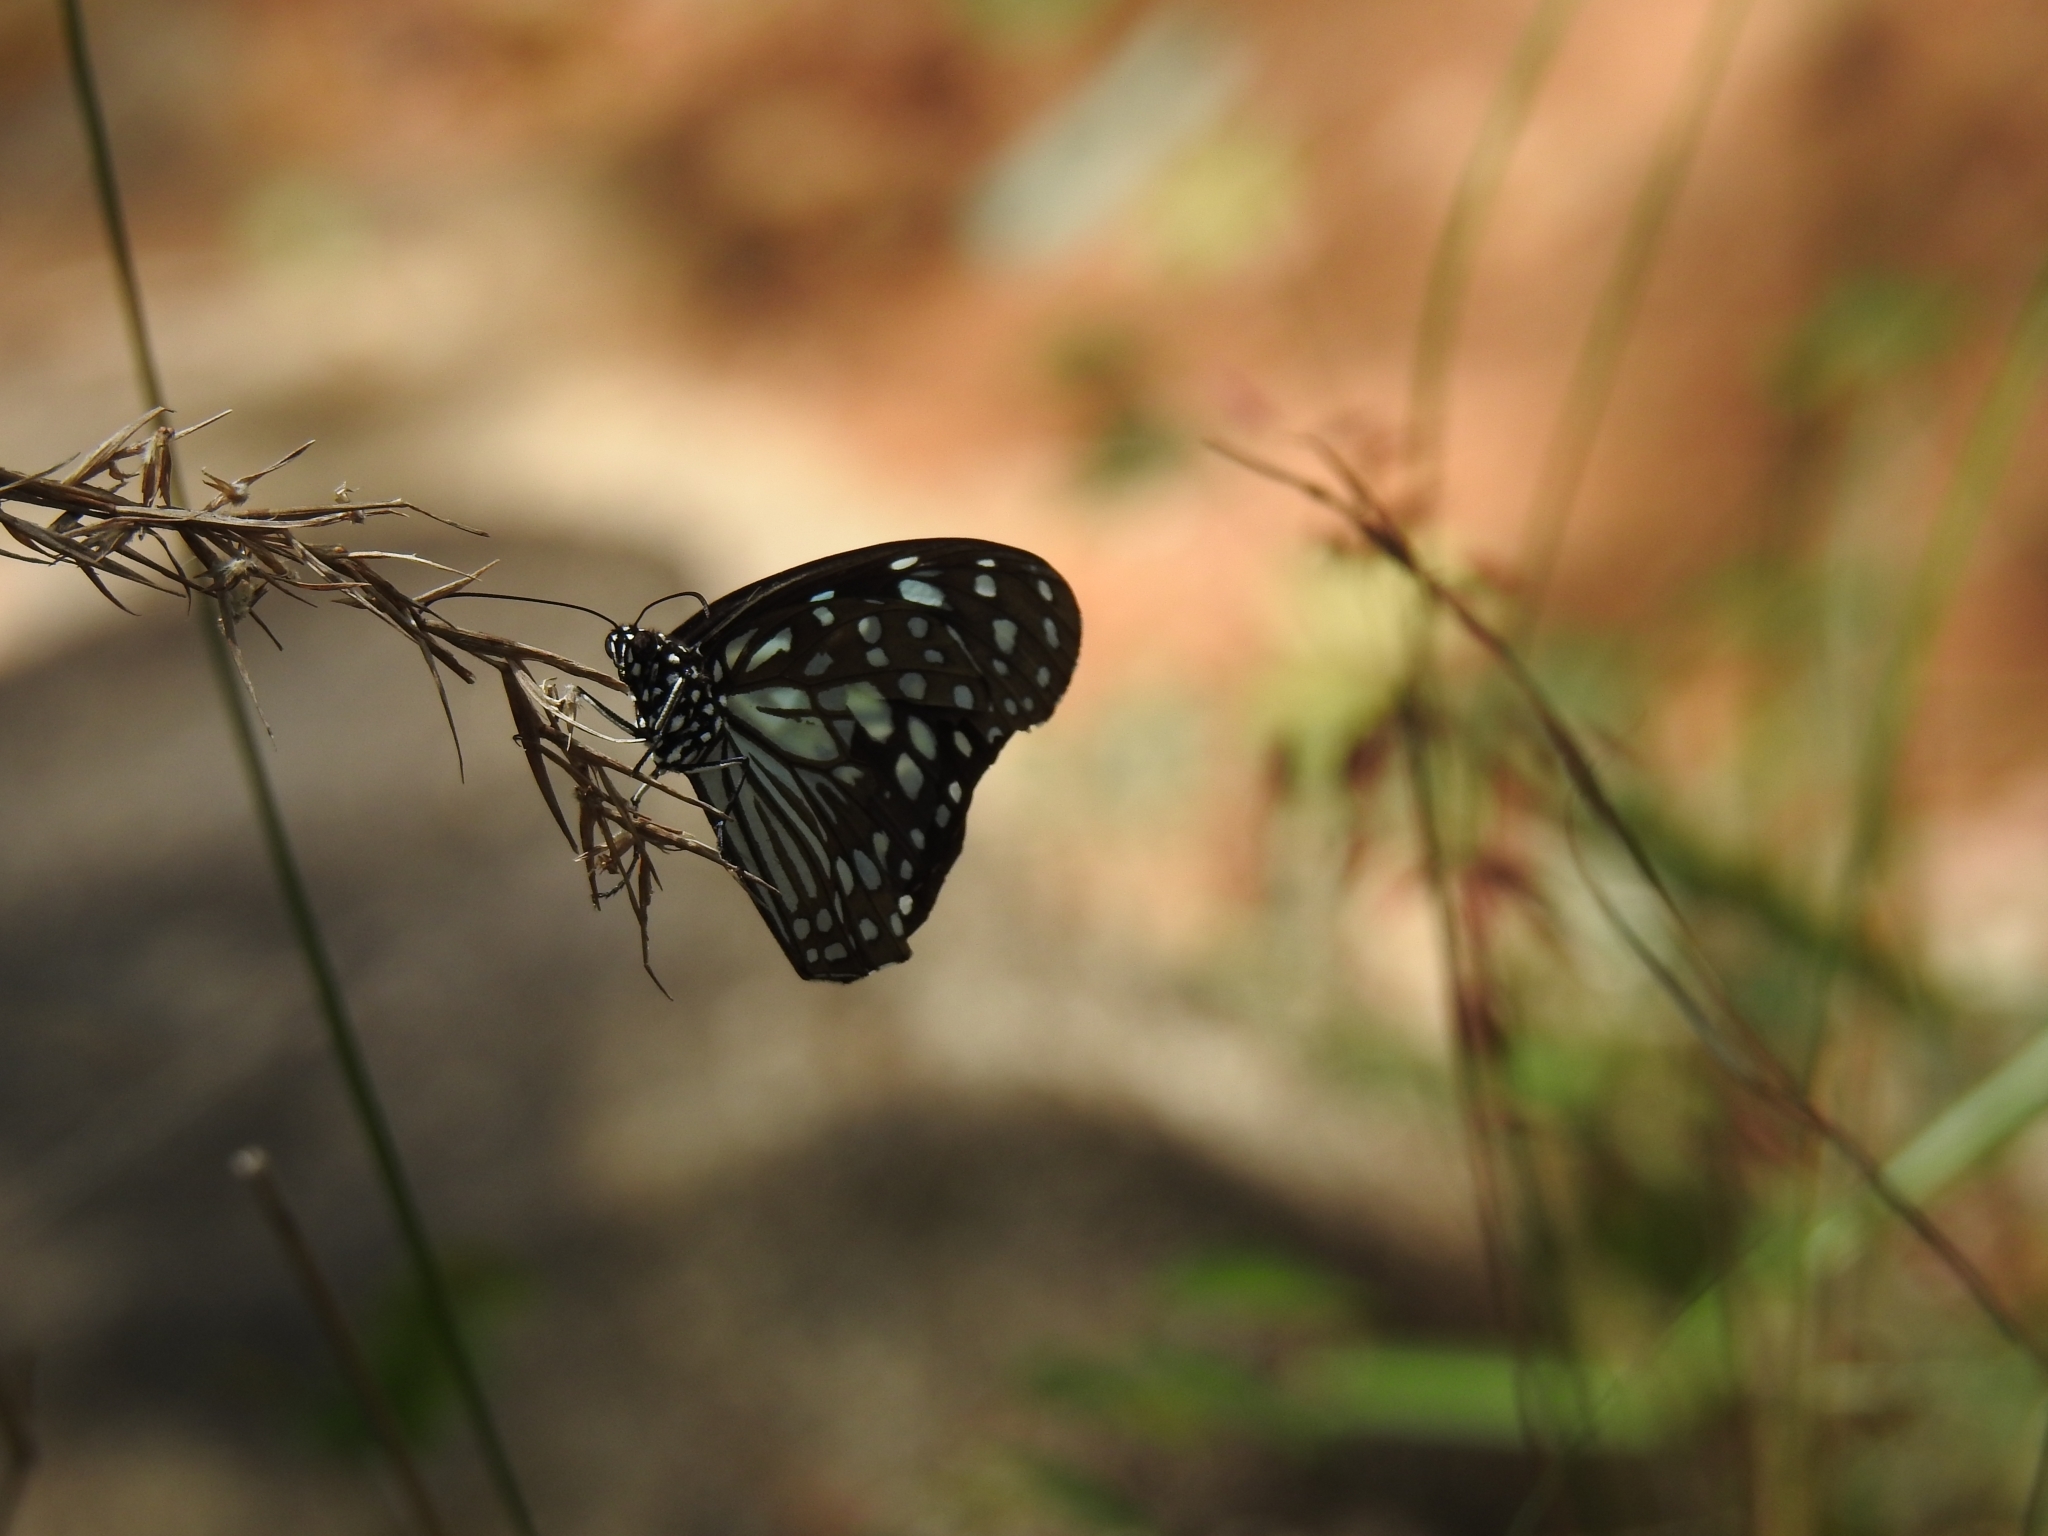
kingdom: Animalia
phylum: Arthropoda
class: Insecta
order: Lepidoptera
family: Nymphalidae
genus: Tirumala
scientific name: Tirumala limniace
